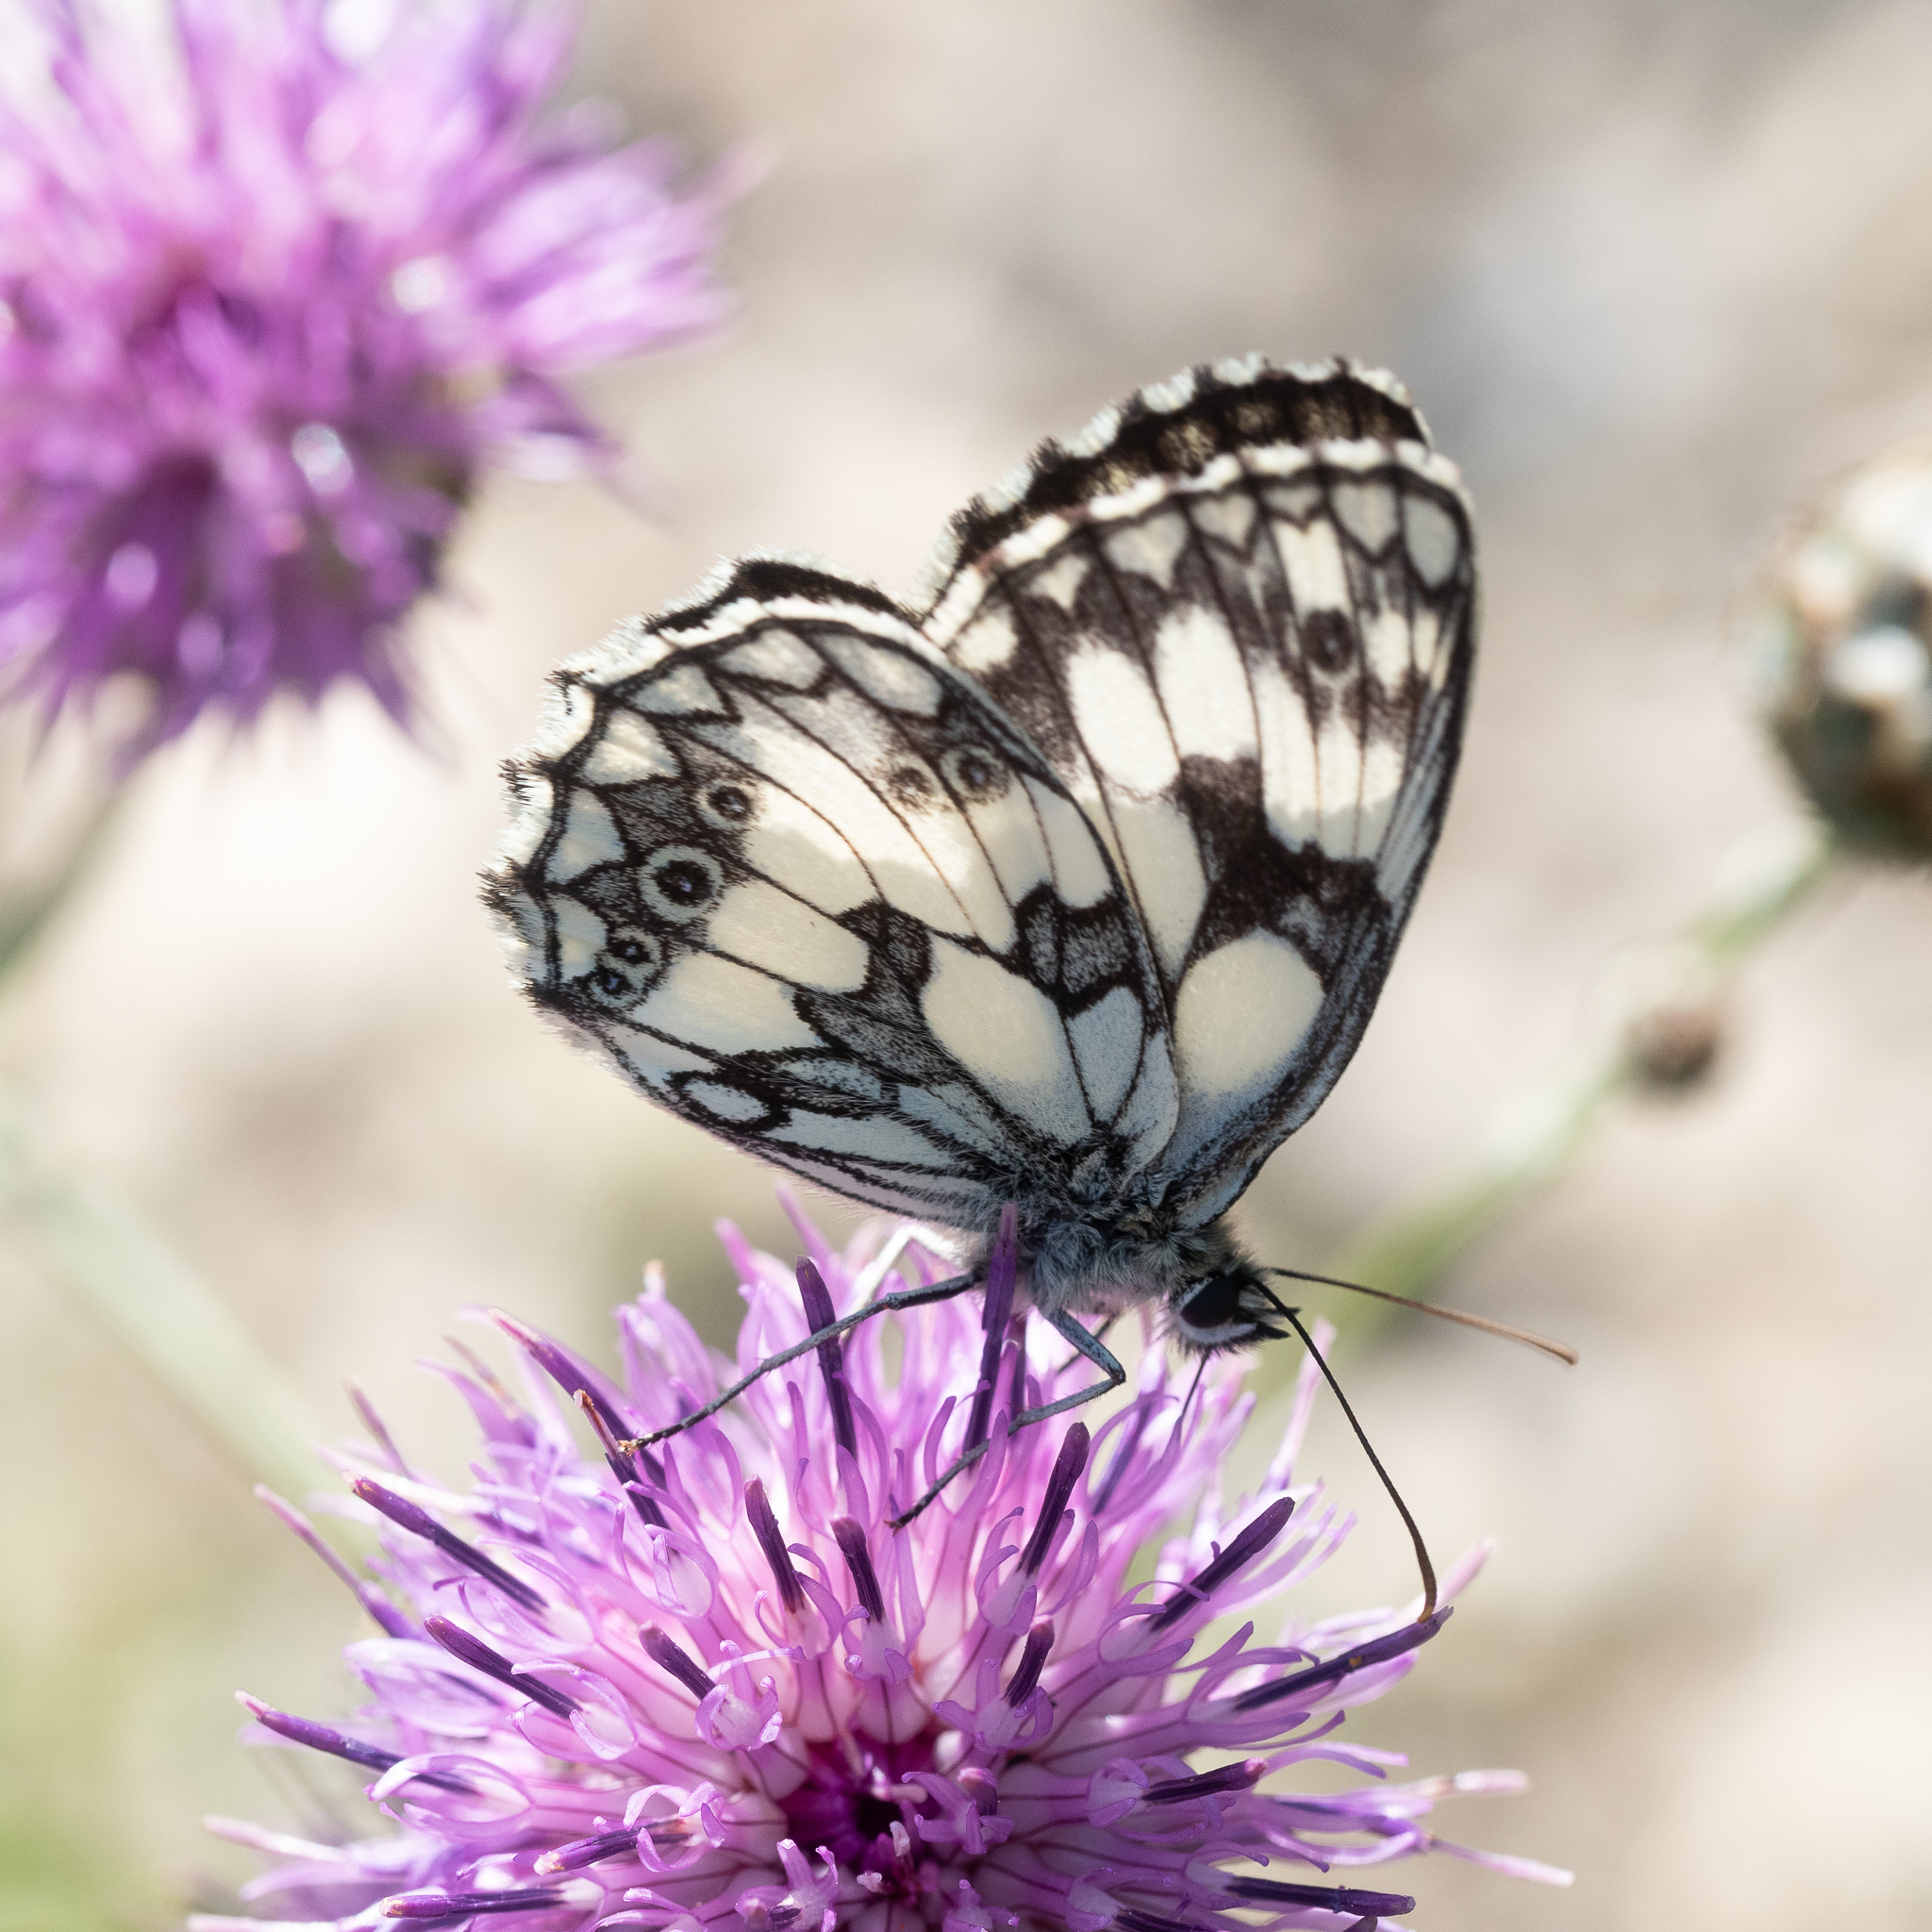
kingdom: Animalia
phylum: Arthropoda
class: Insecta
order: Lepidoptera
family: Nymphalidae
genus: Melanargia
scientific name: Melanargia galathea
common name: Marbled white
